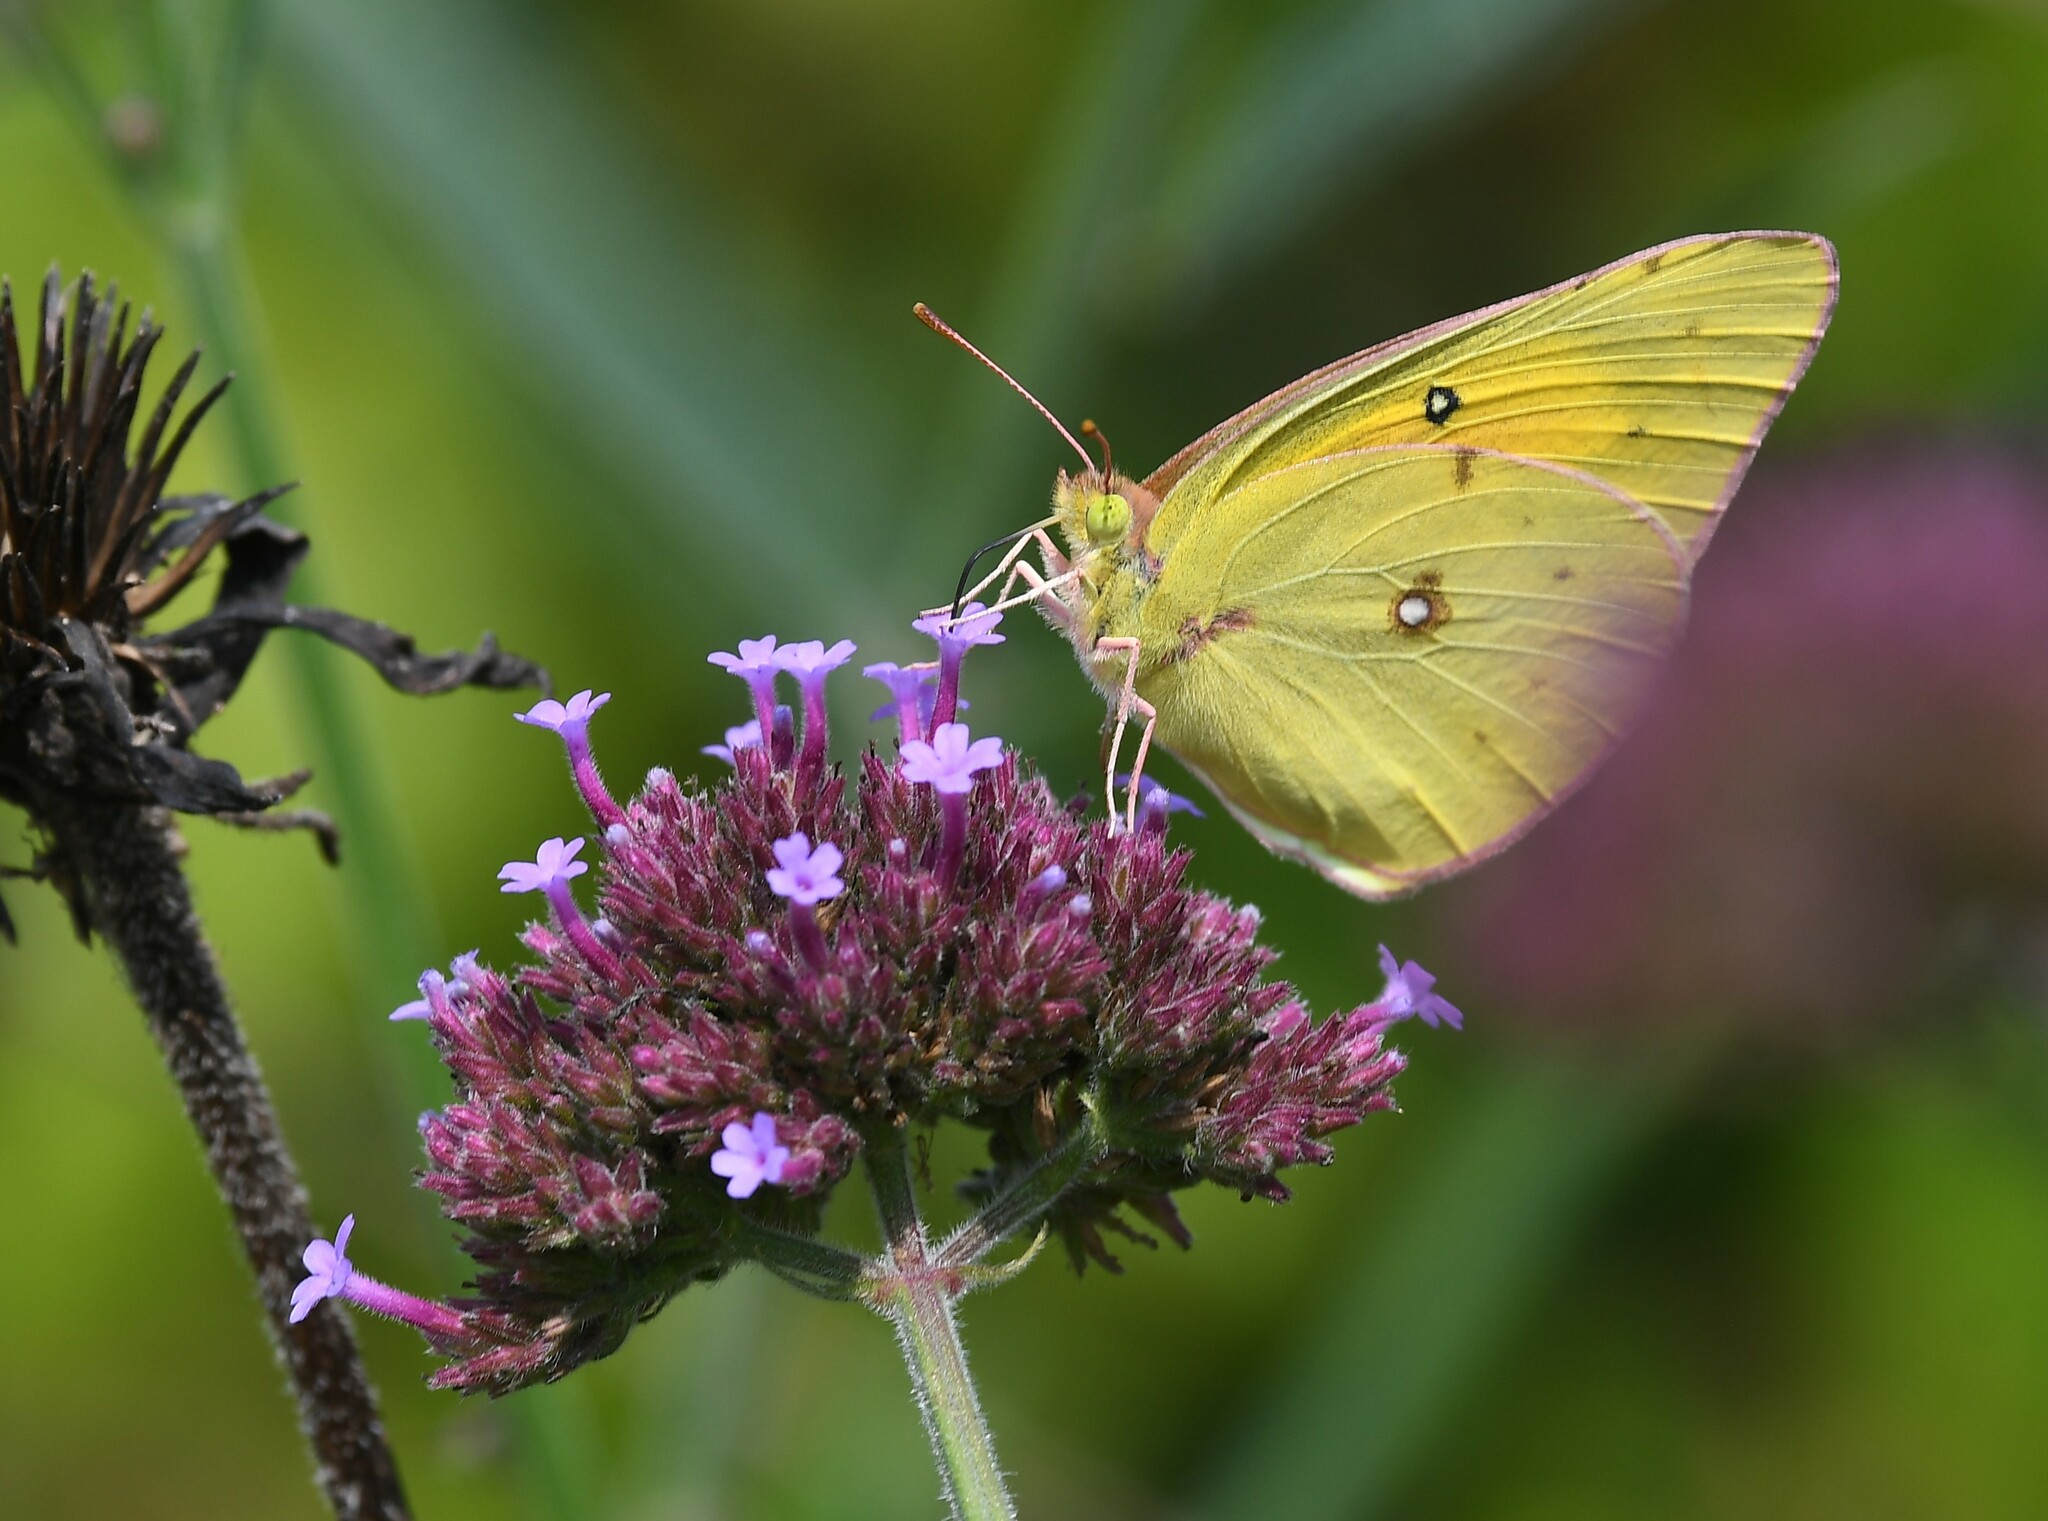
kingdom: Animalia
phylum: Arthropoda
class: Insecta
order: Lepidoptera
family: Pieridae
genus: Colias
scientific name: Colias eurytheme
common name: Alfalfa butterfly
